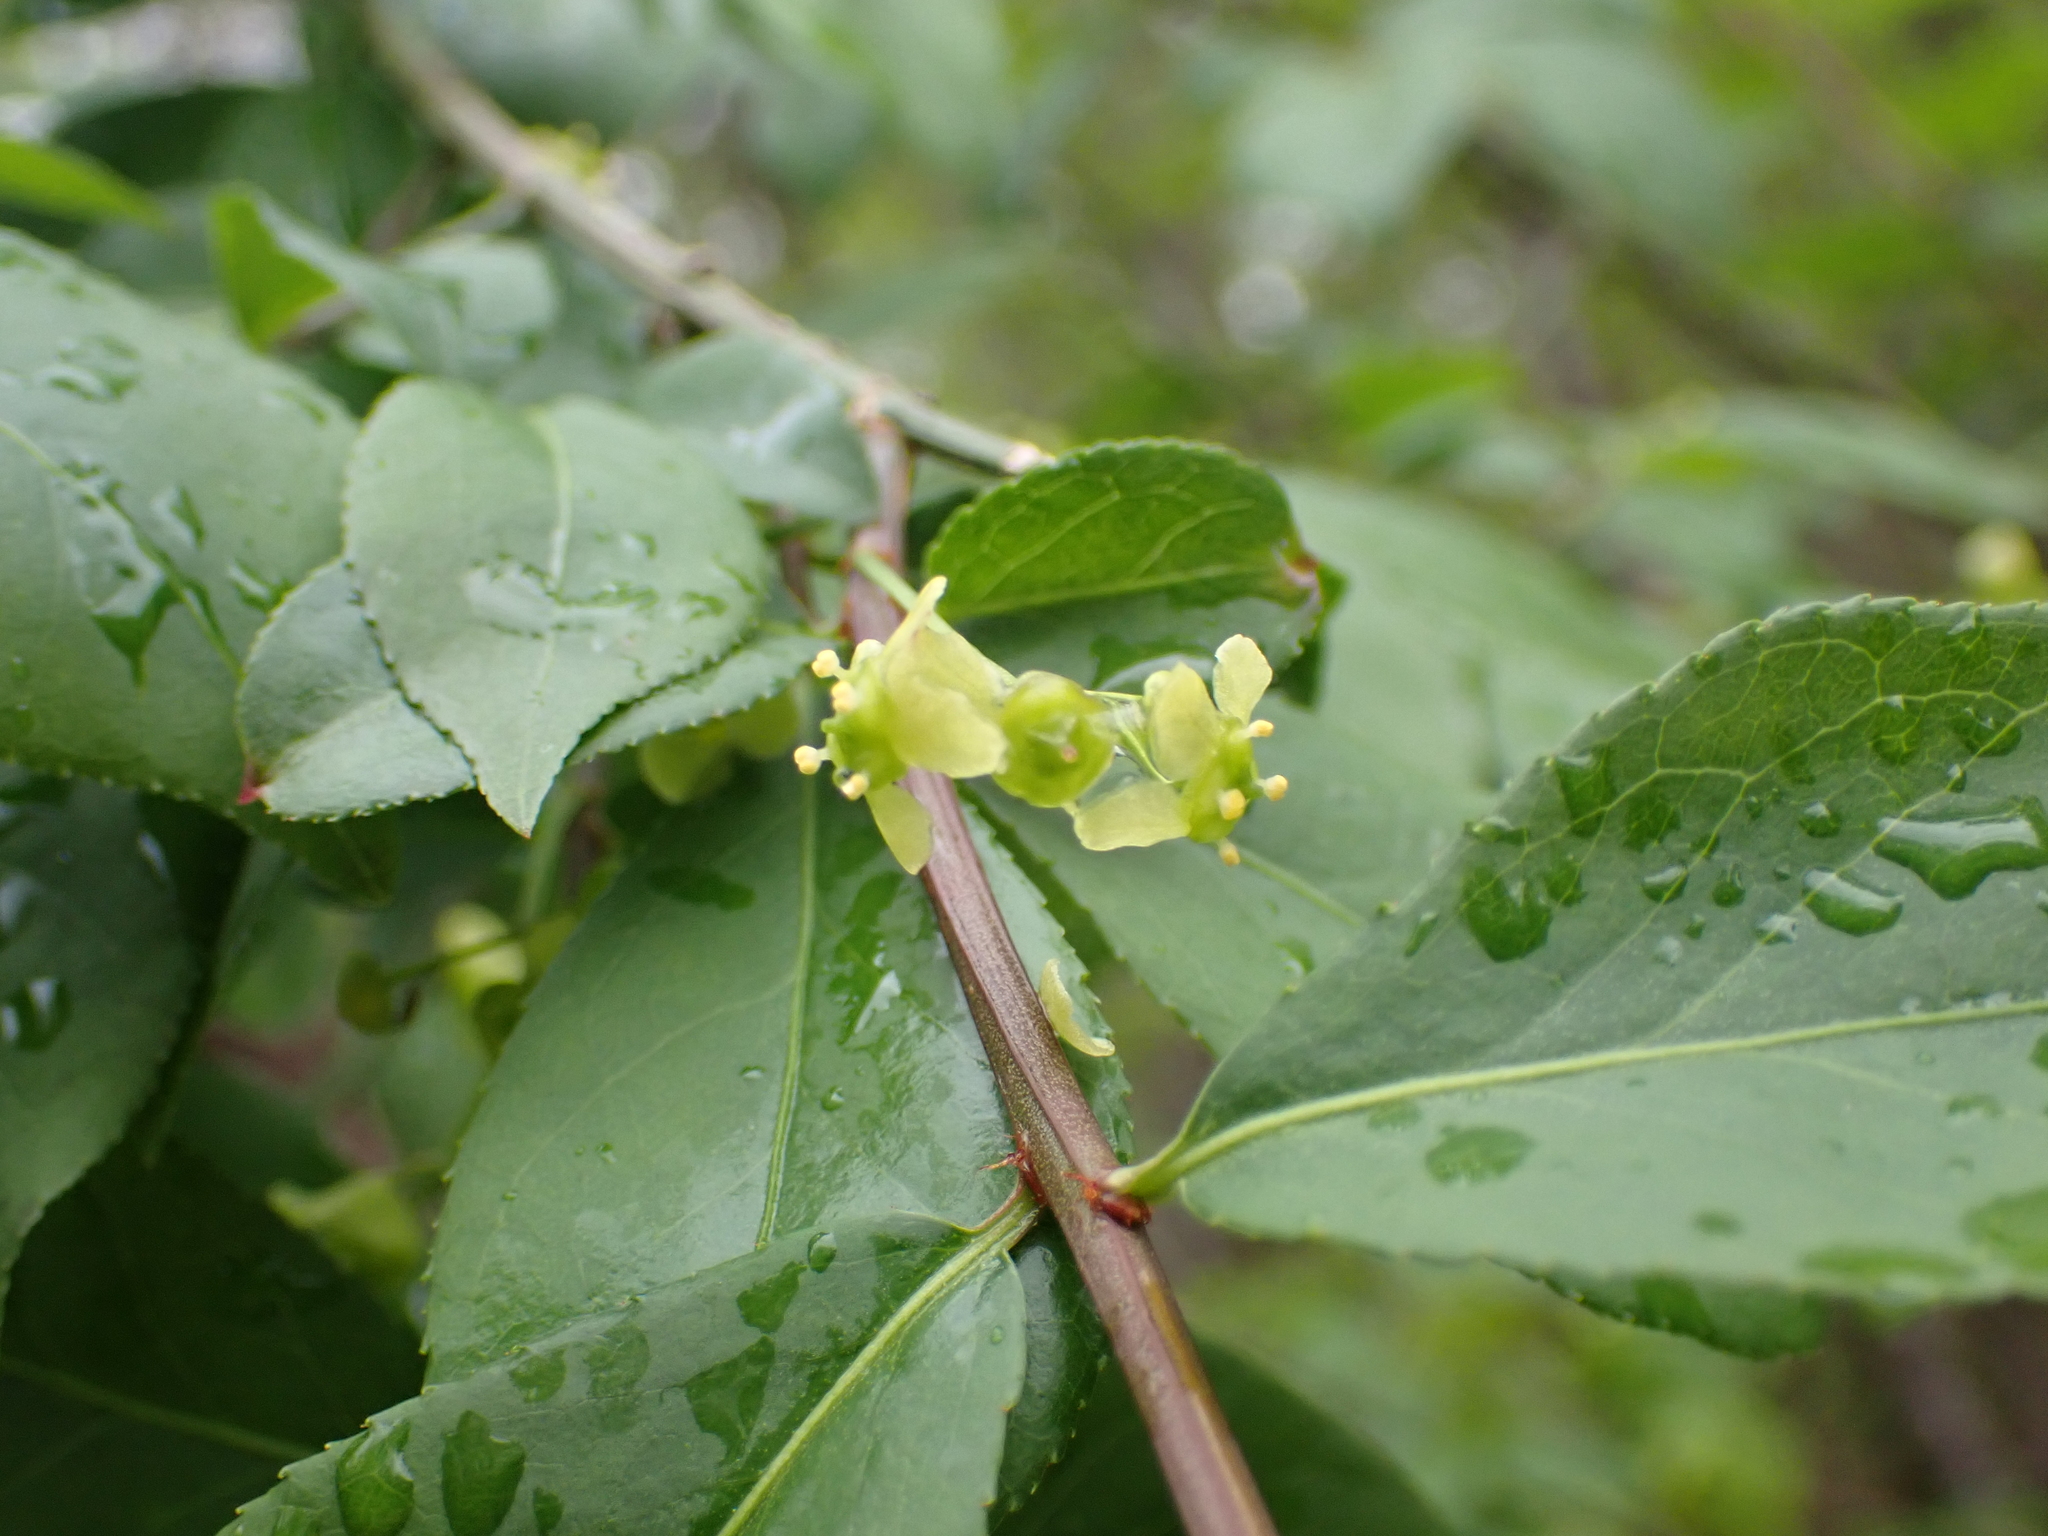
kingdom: Plantae
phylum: Tracheophyta
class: Magnoliopsida
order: Celastrales
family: Celastraceae
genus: Euonymus
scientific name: Euonymus alatus
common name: Winged euonymus
